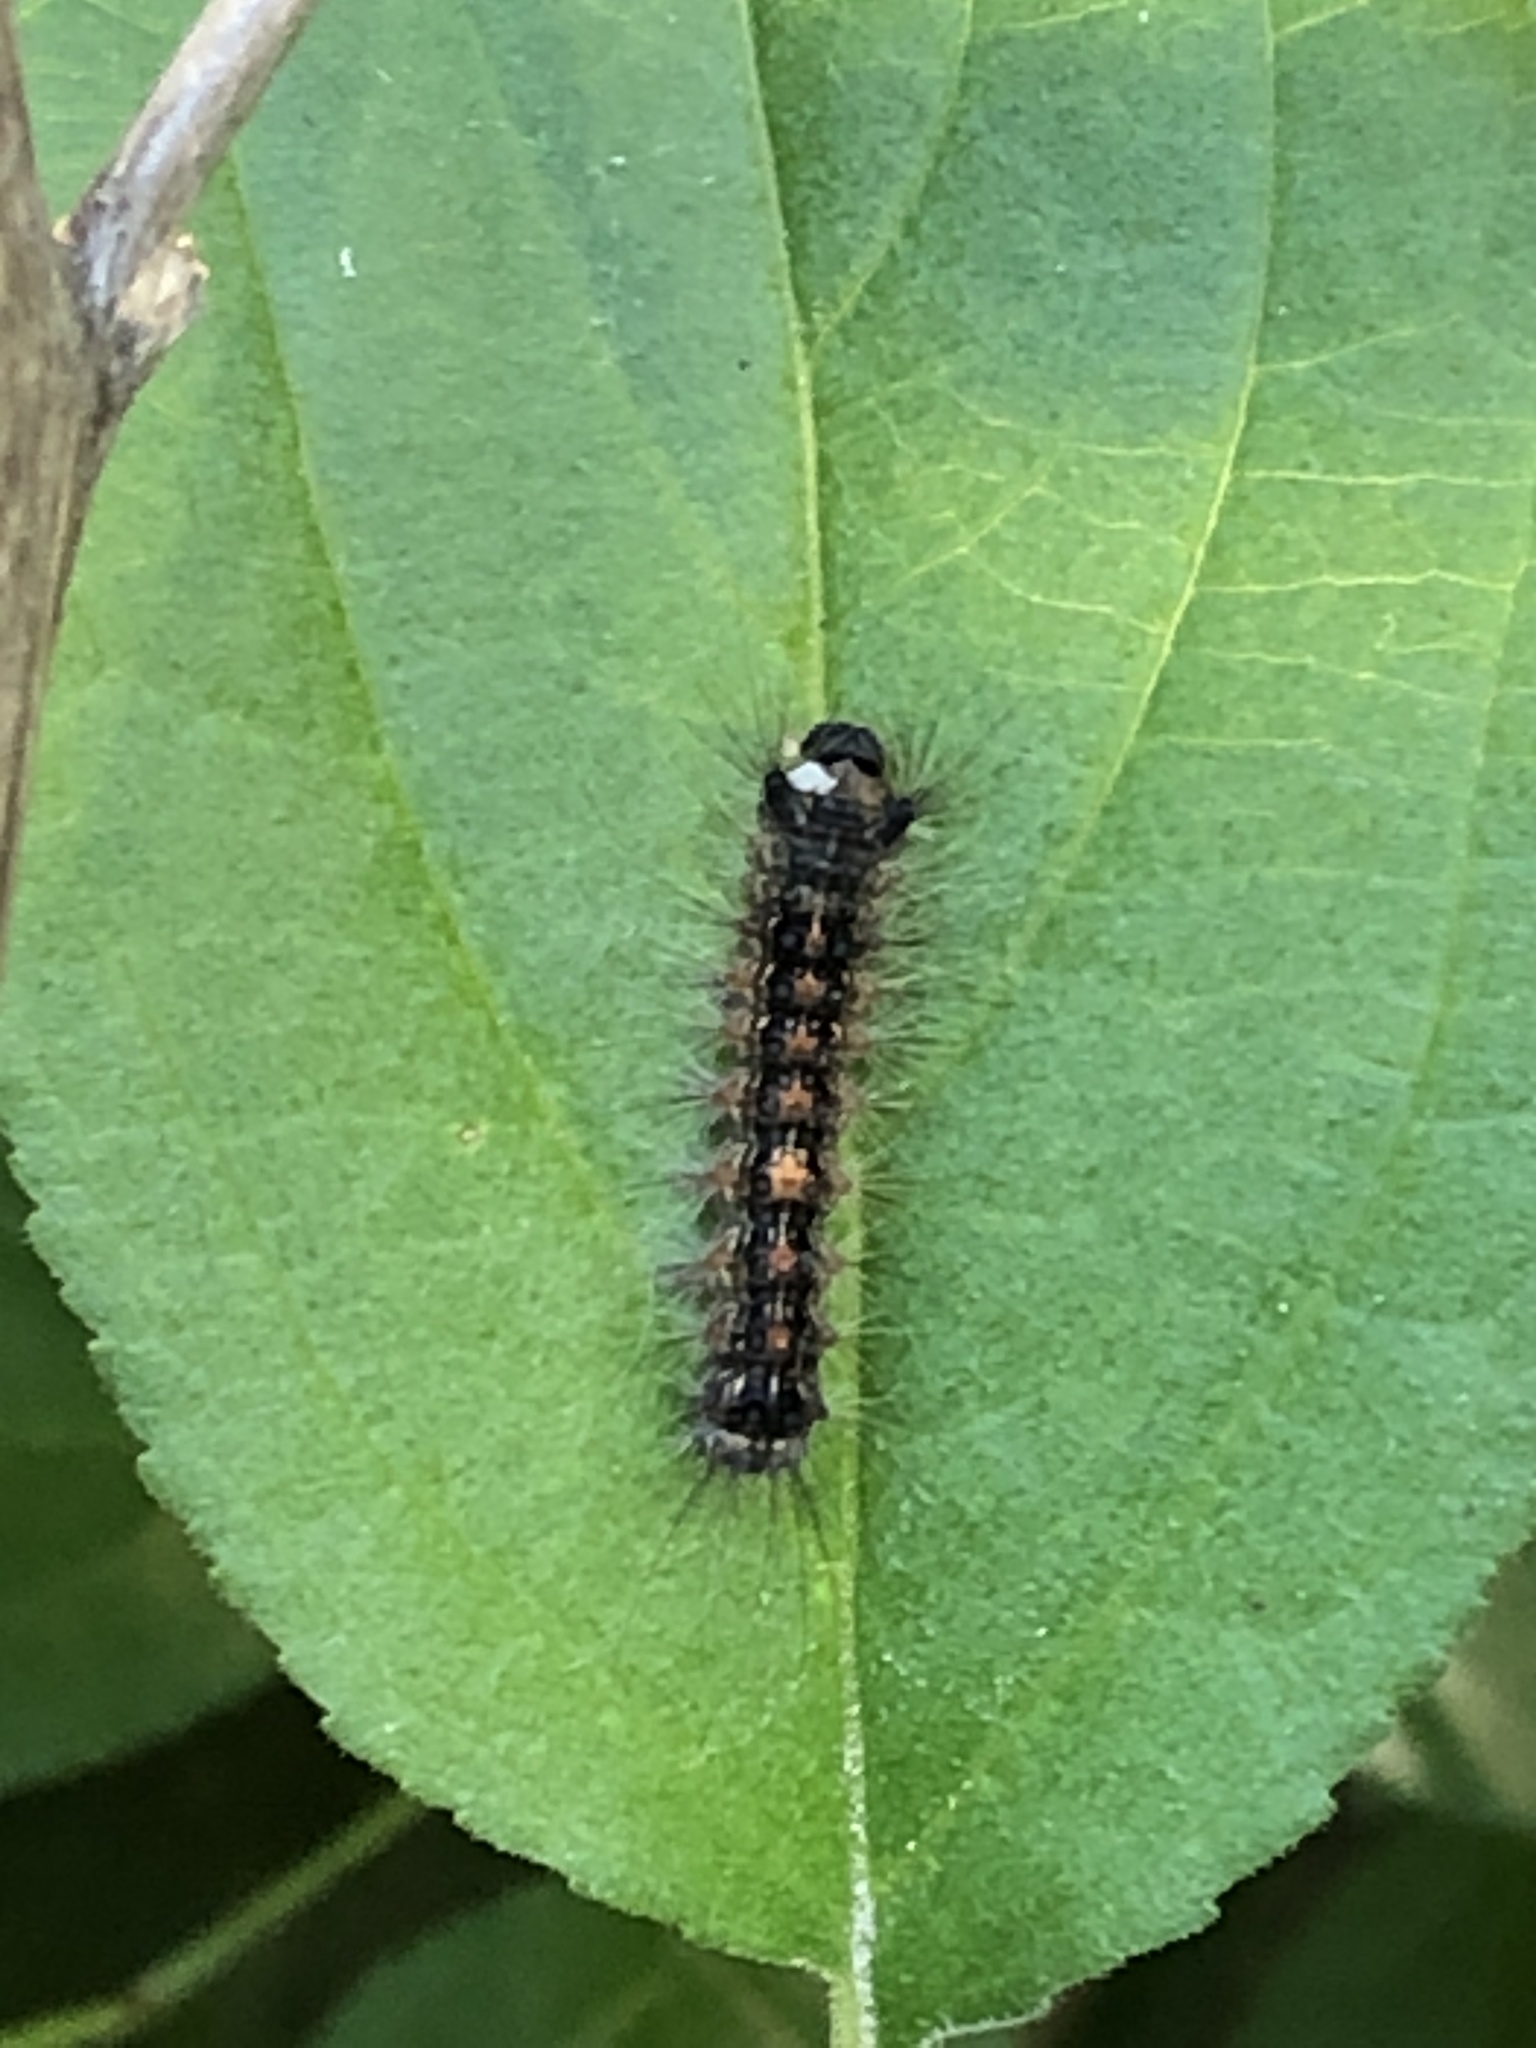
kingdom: Animalia
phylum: Arthropoda
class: Insecta
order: Lepidoptera
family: Erebidae
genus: Lymantria
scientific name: Lymantria dispar
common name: Gypsy moth
